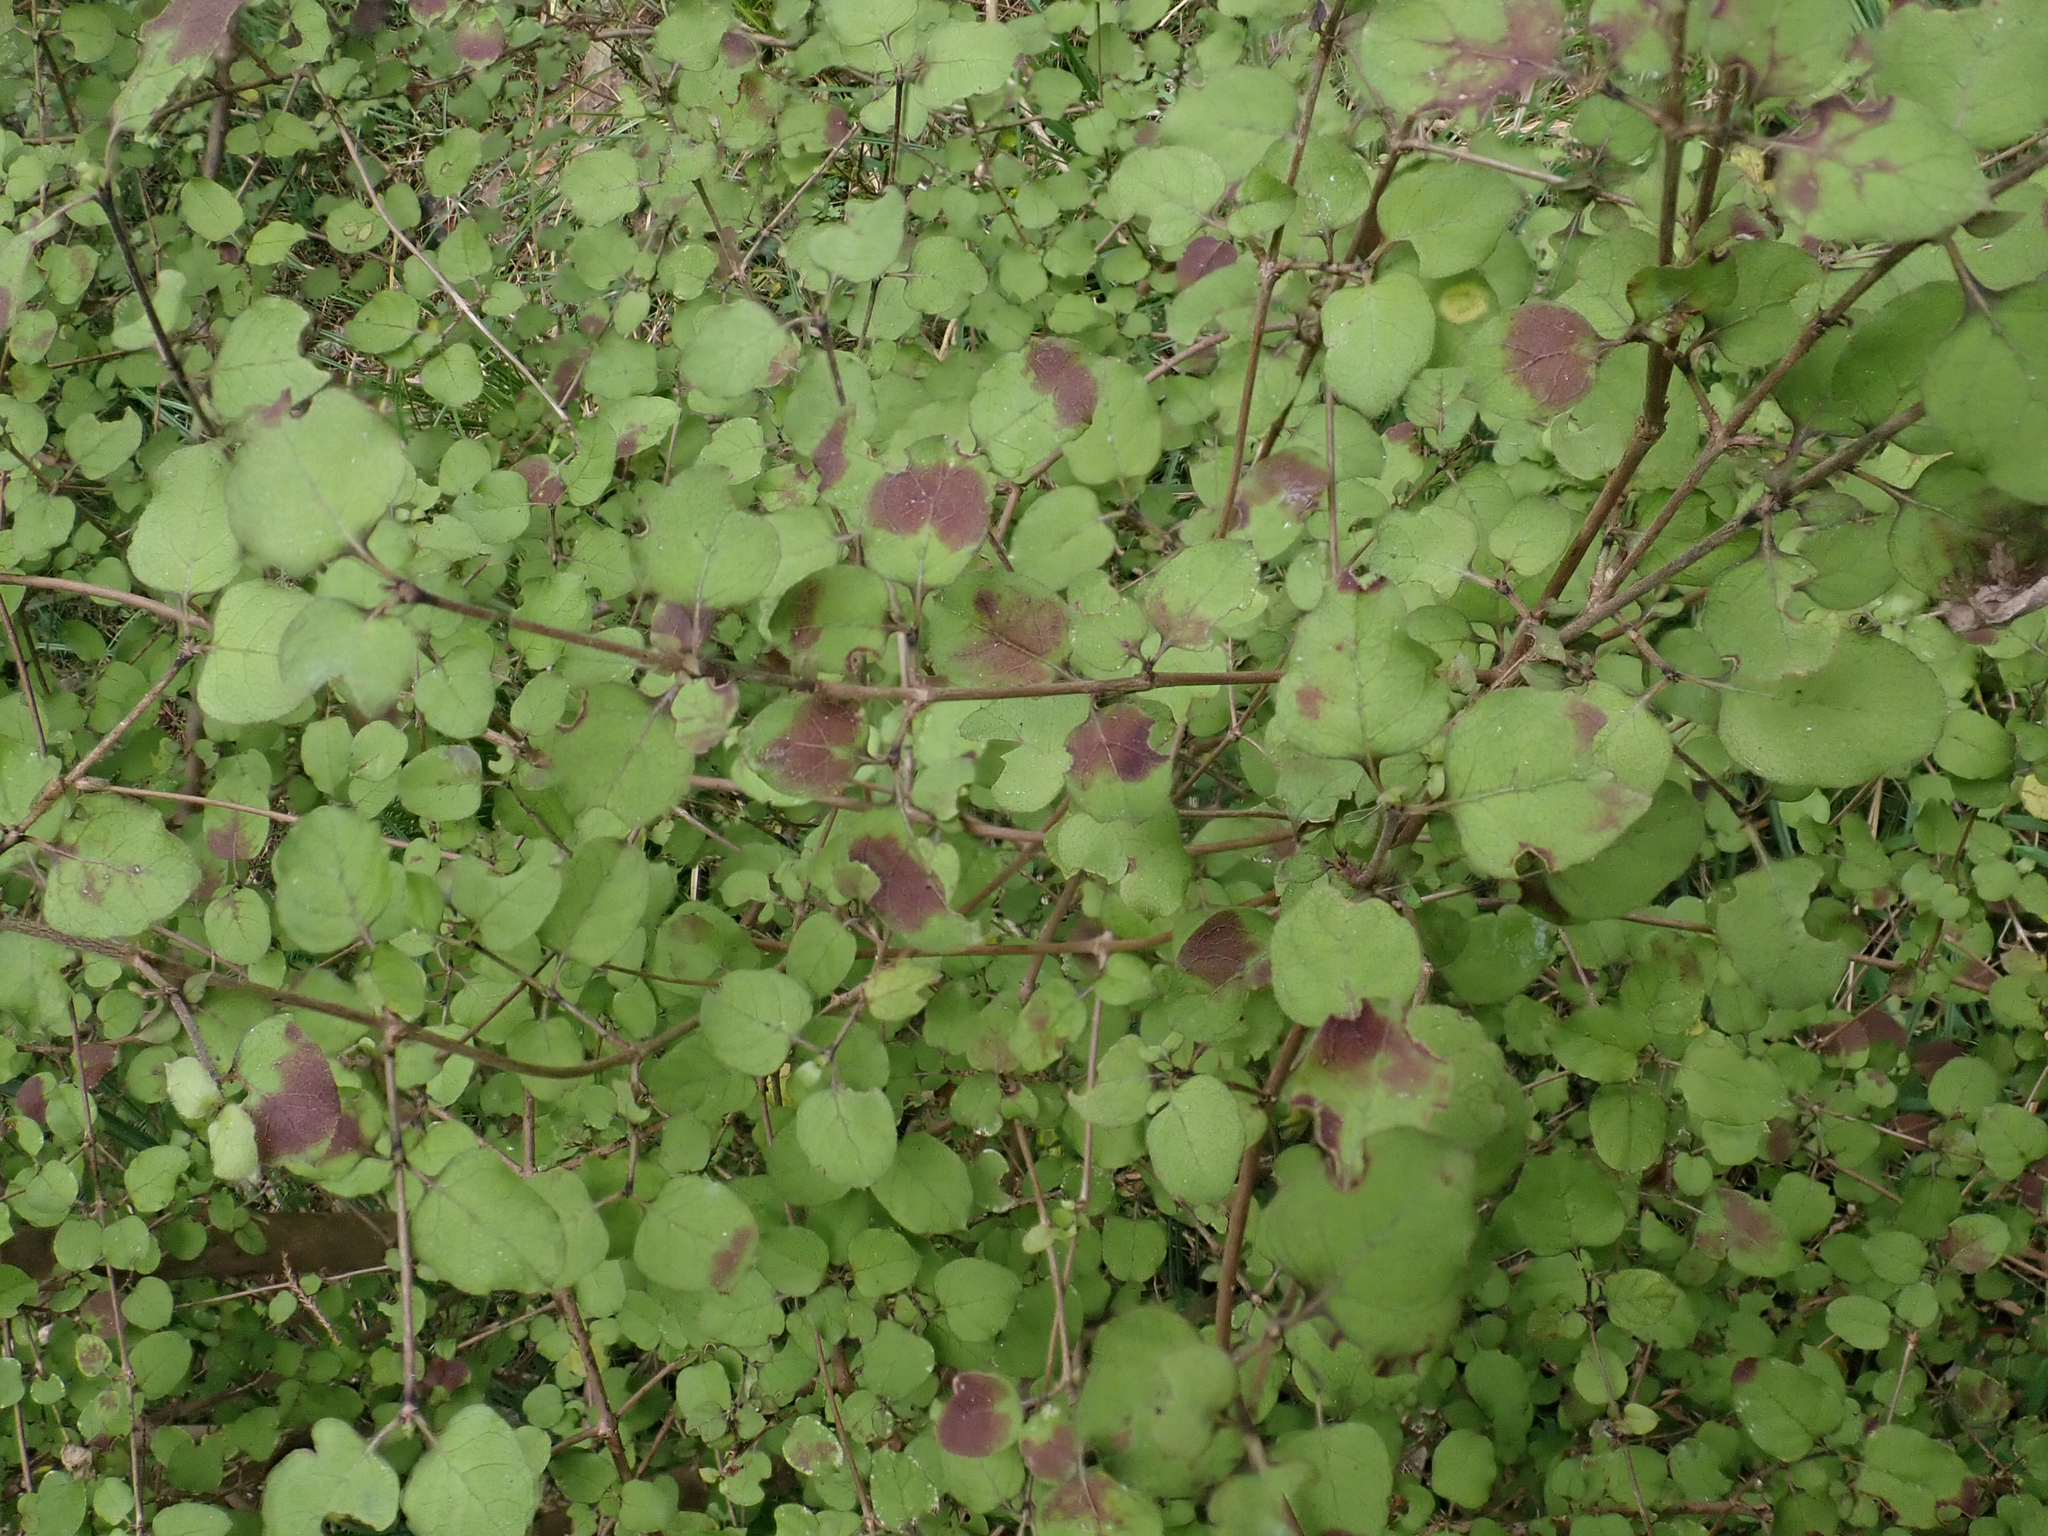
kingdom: Plantae
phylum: Tracheophyta
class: Magnoliopsida
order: Gentianales
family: Rubiaceae
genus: Coprosma
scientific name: Coprosma rotundifolia
